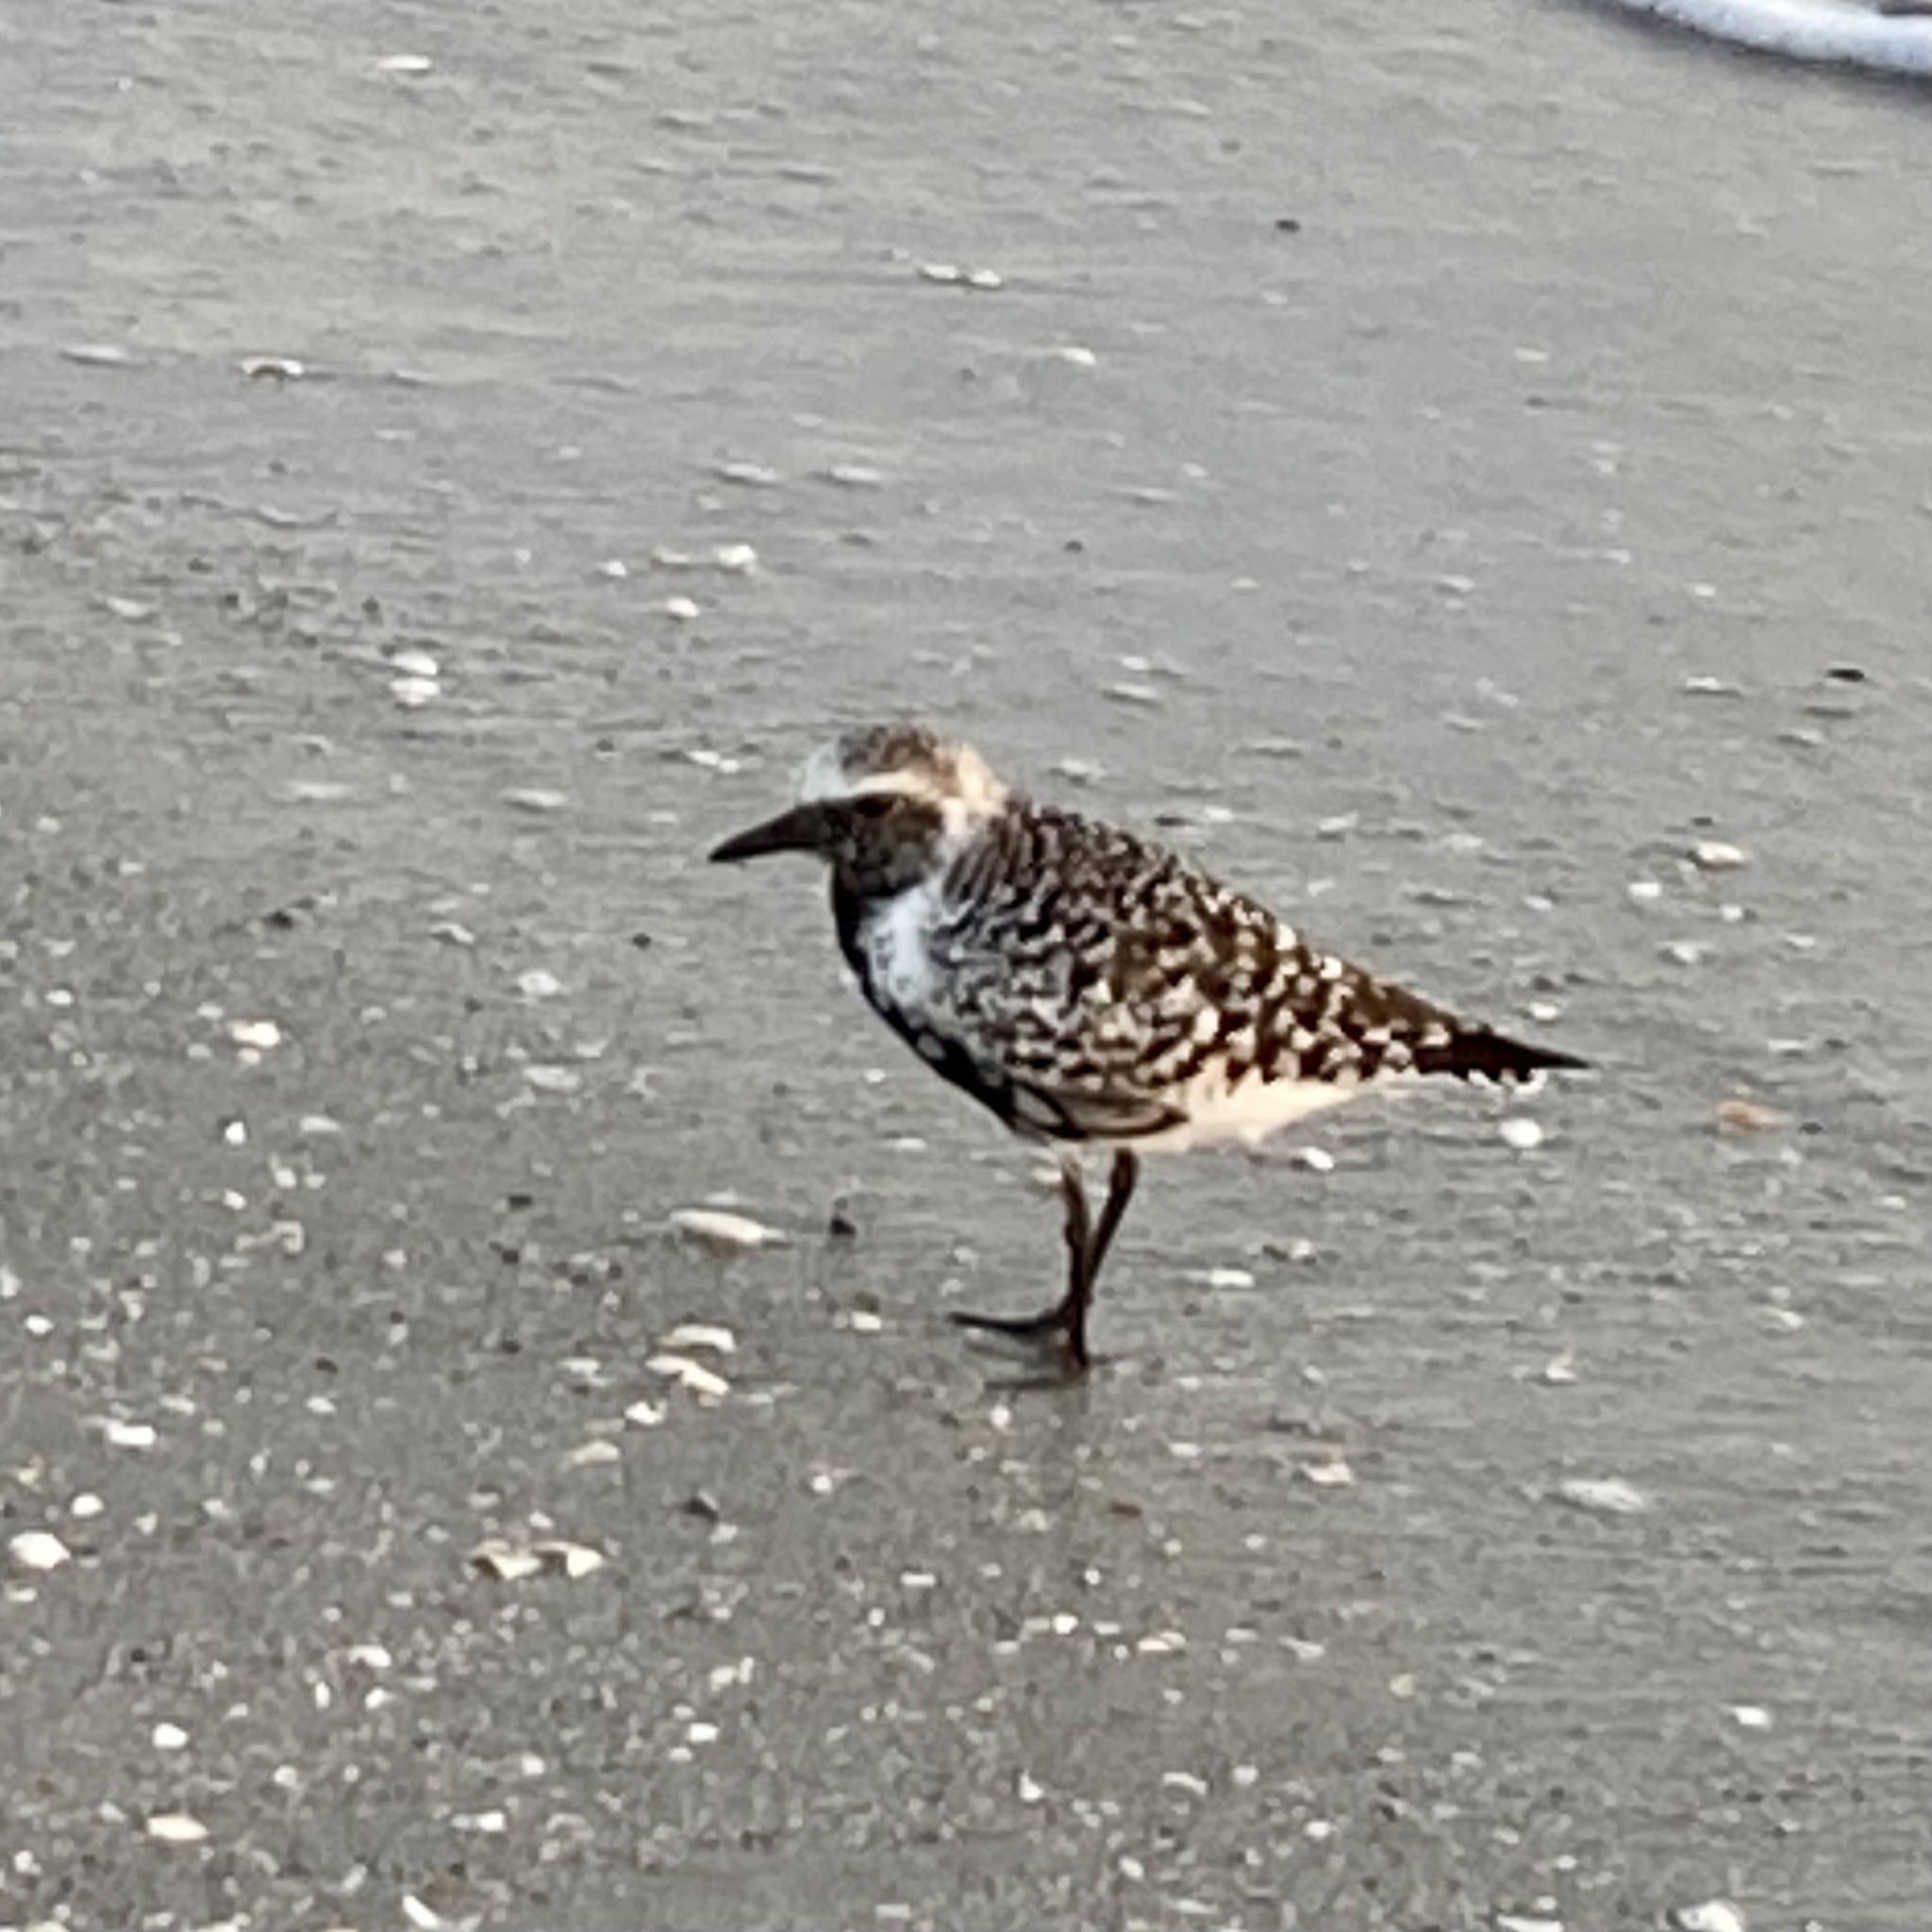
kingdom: Animalia
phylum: Chordata
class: Aves
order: Charadriiformes
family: Charadriidae
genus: Pluvialis
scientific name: Pluvialis squatarola
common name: Grey plover
